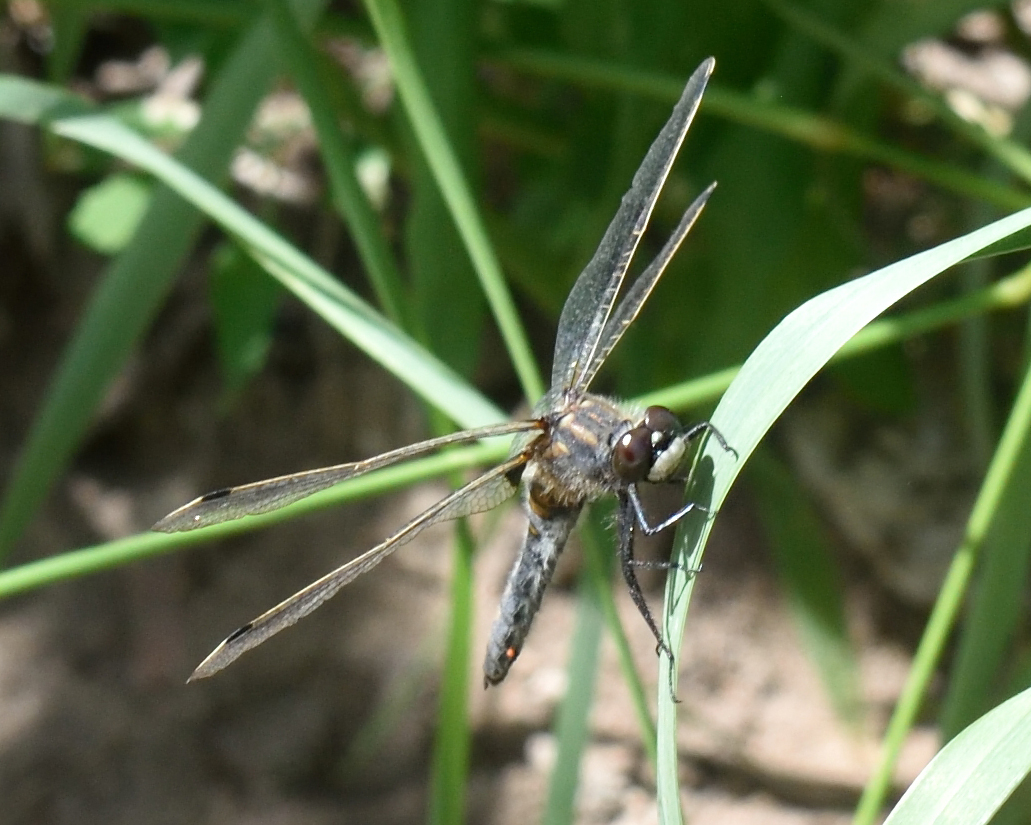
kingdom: Animalia
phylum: Arthropoda
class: Insecta
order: Odonata
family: Libellulidae
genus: Leucorrhinia
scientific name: Leucorrhinia rubicunda
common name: Ruby whiteface
